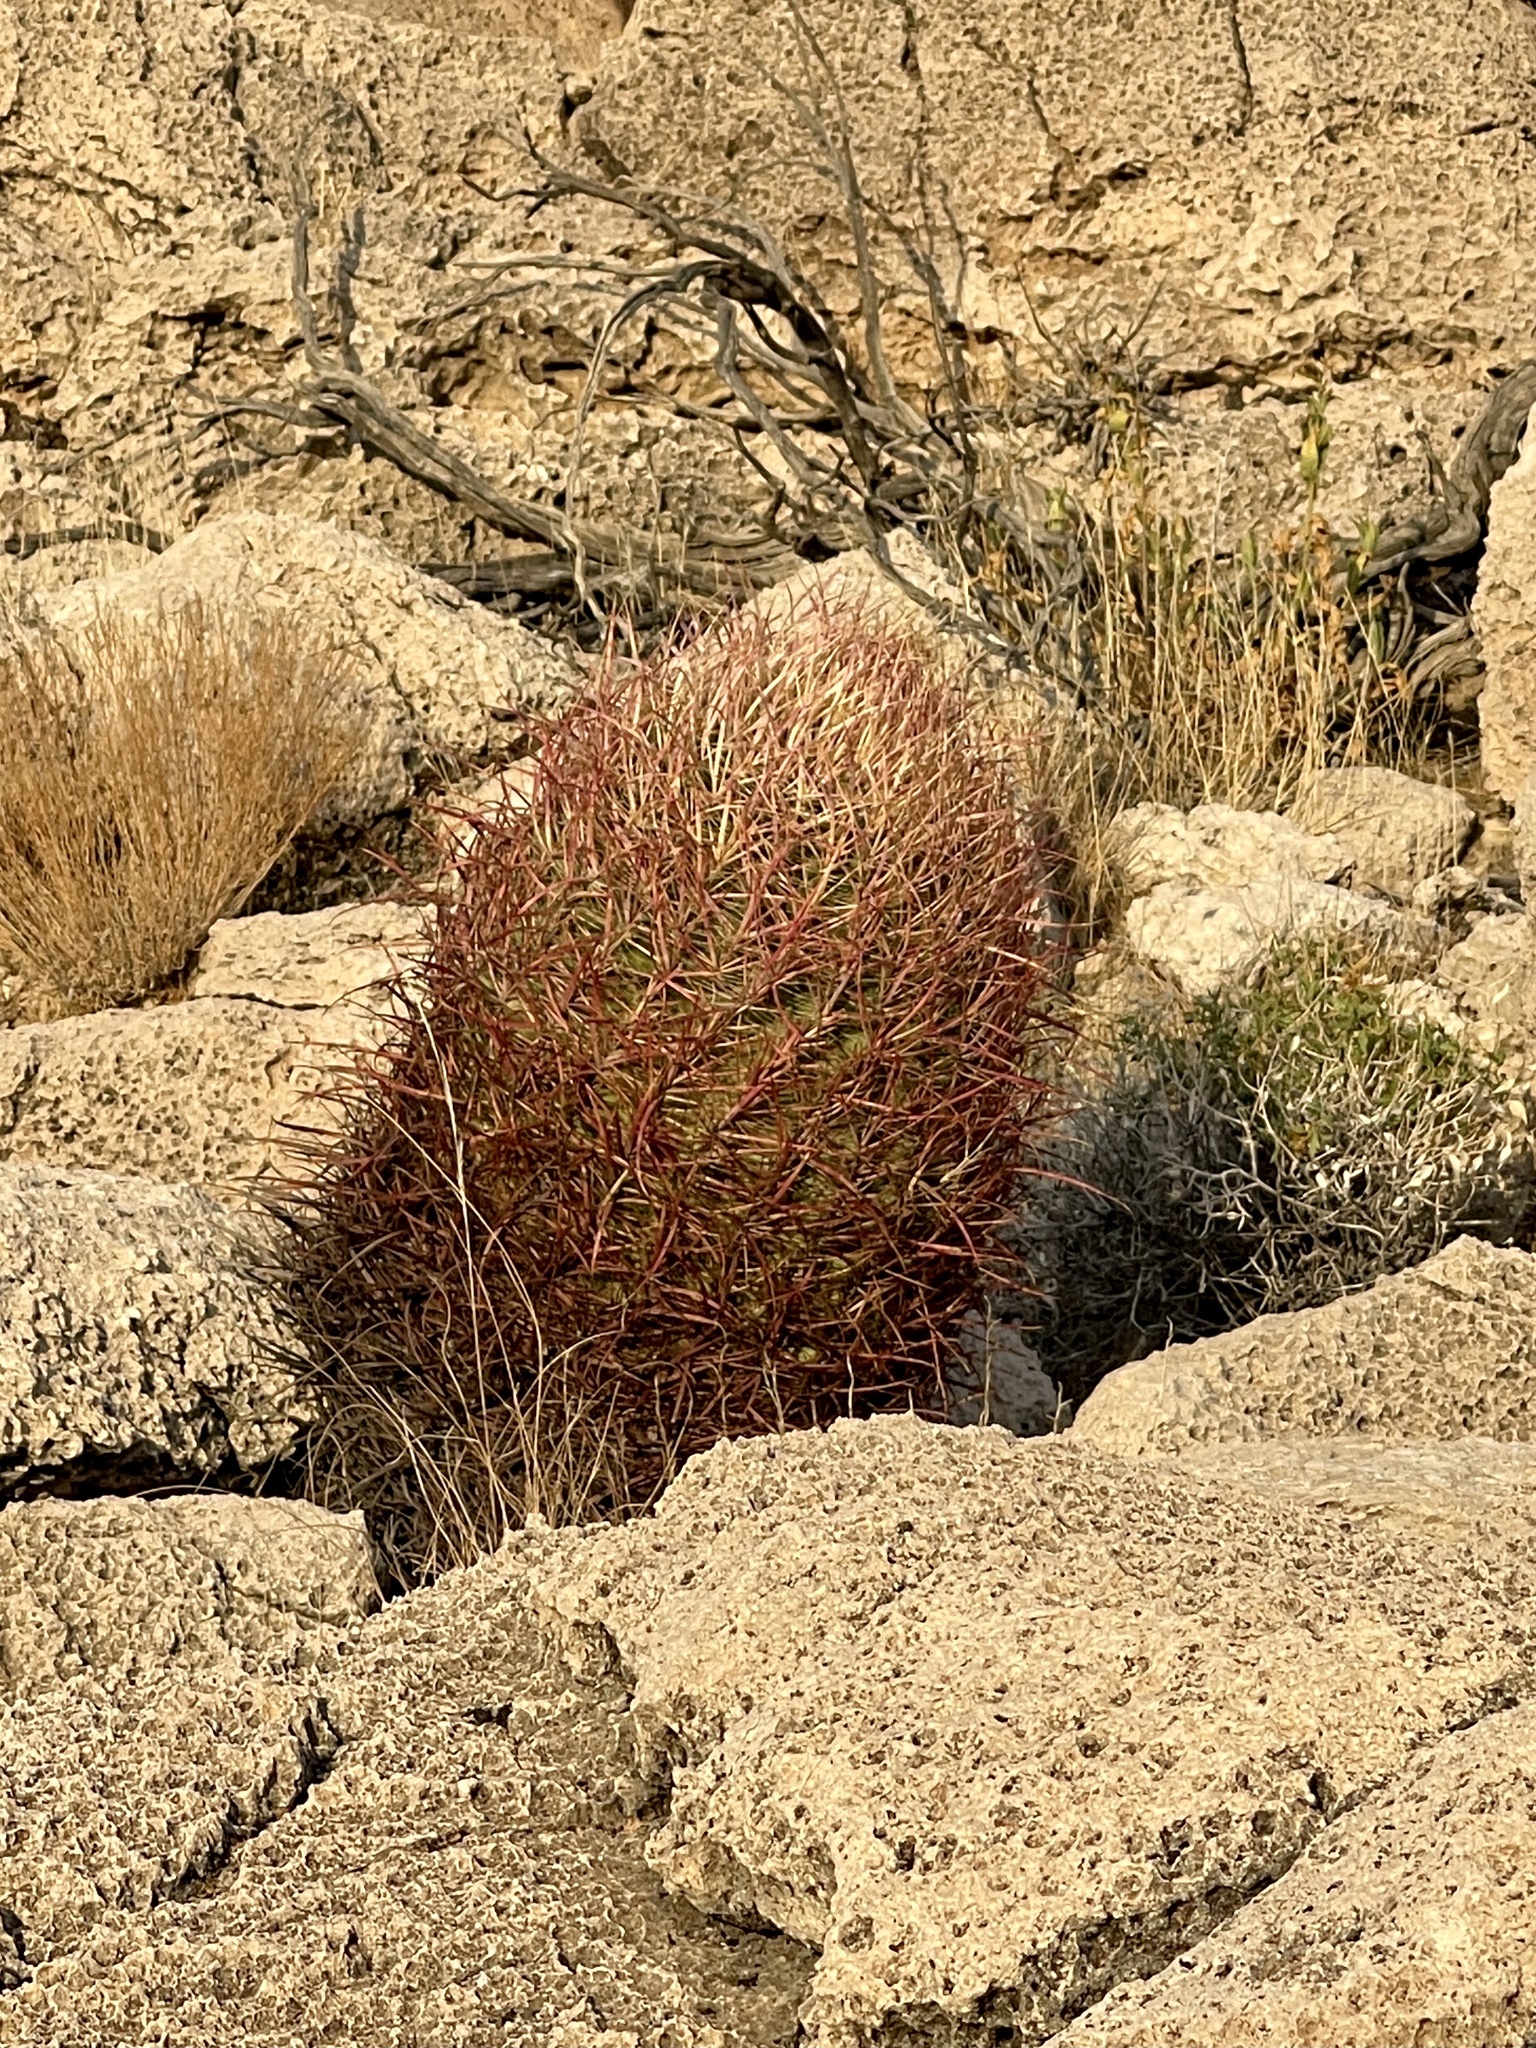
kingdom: Plantae
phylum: Tracheophyta
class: Magnoliopsida
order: Caryophyllales
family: Cactaceae
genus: Ferocactus
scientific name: Ferocactus cylindraceus
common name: California barrel cactus
